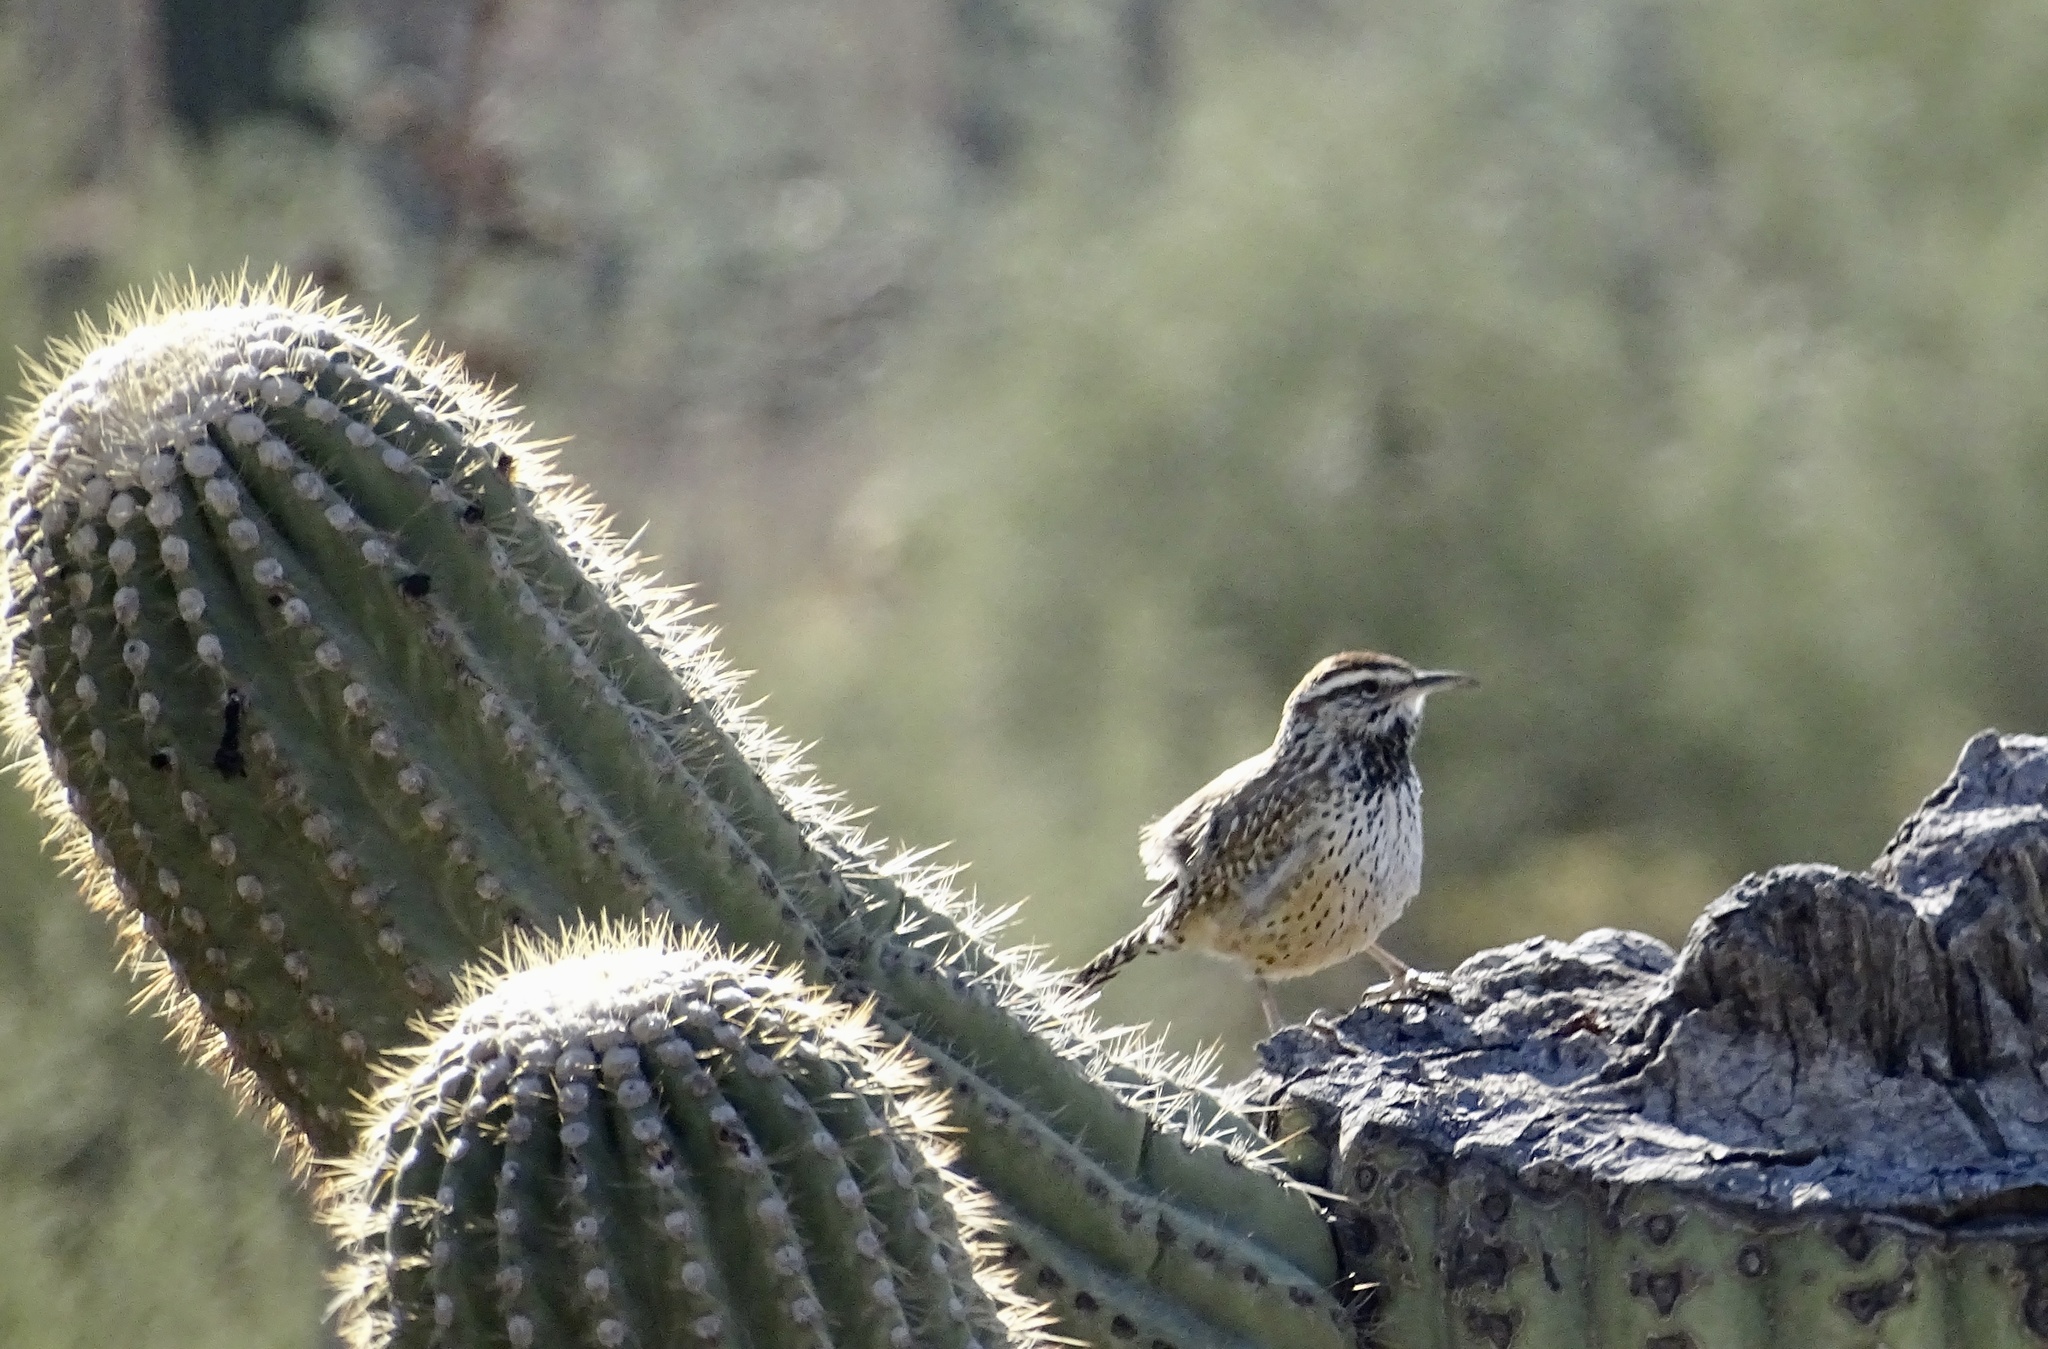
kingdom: Animalia
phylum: Chordata
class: Aves
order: Passeriformes
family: Troglodytidae
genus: Campylorhynchus
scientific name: Campylorhynchus brunneicapillus
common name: Cactus wren
